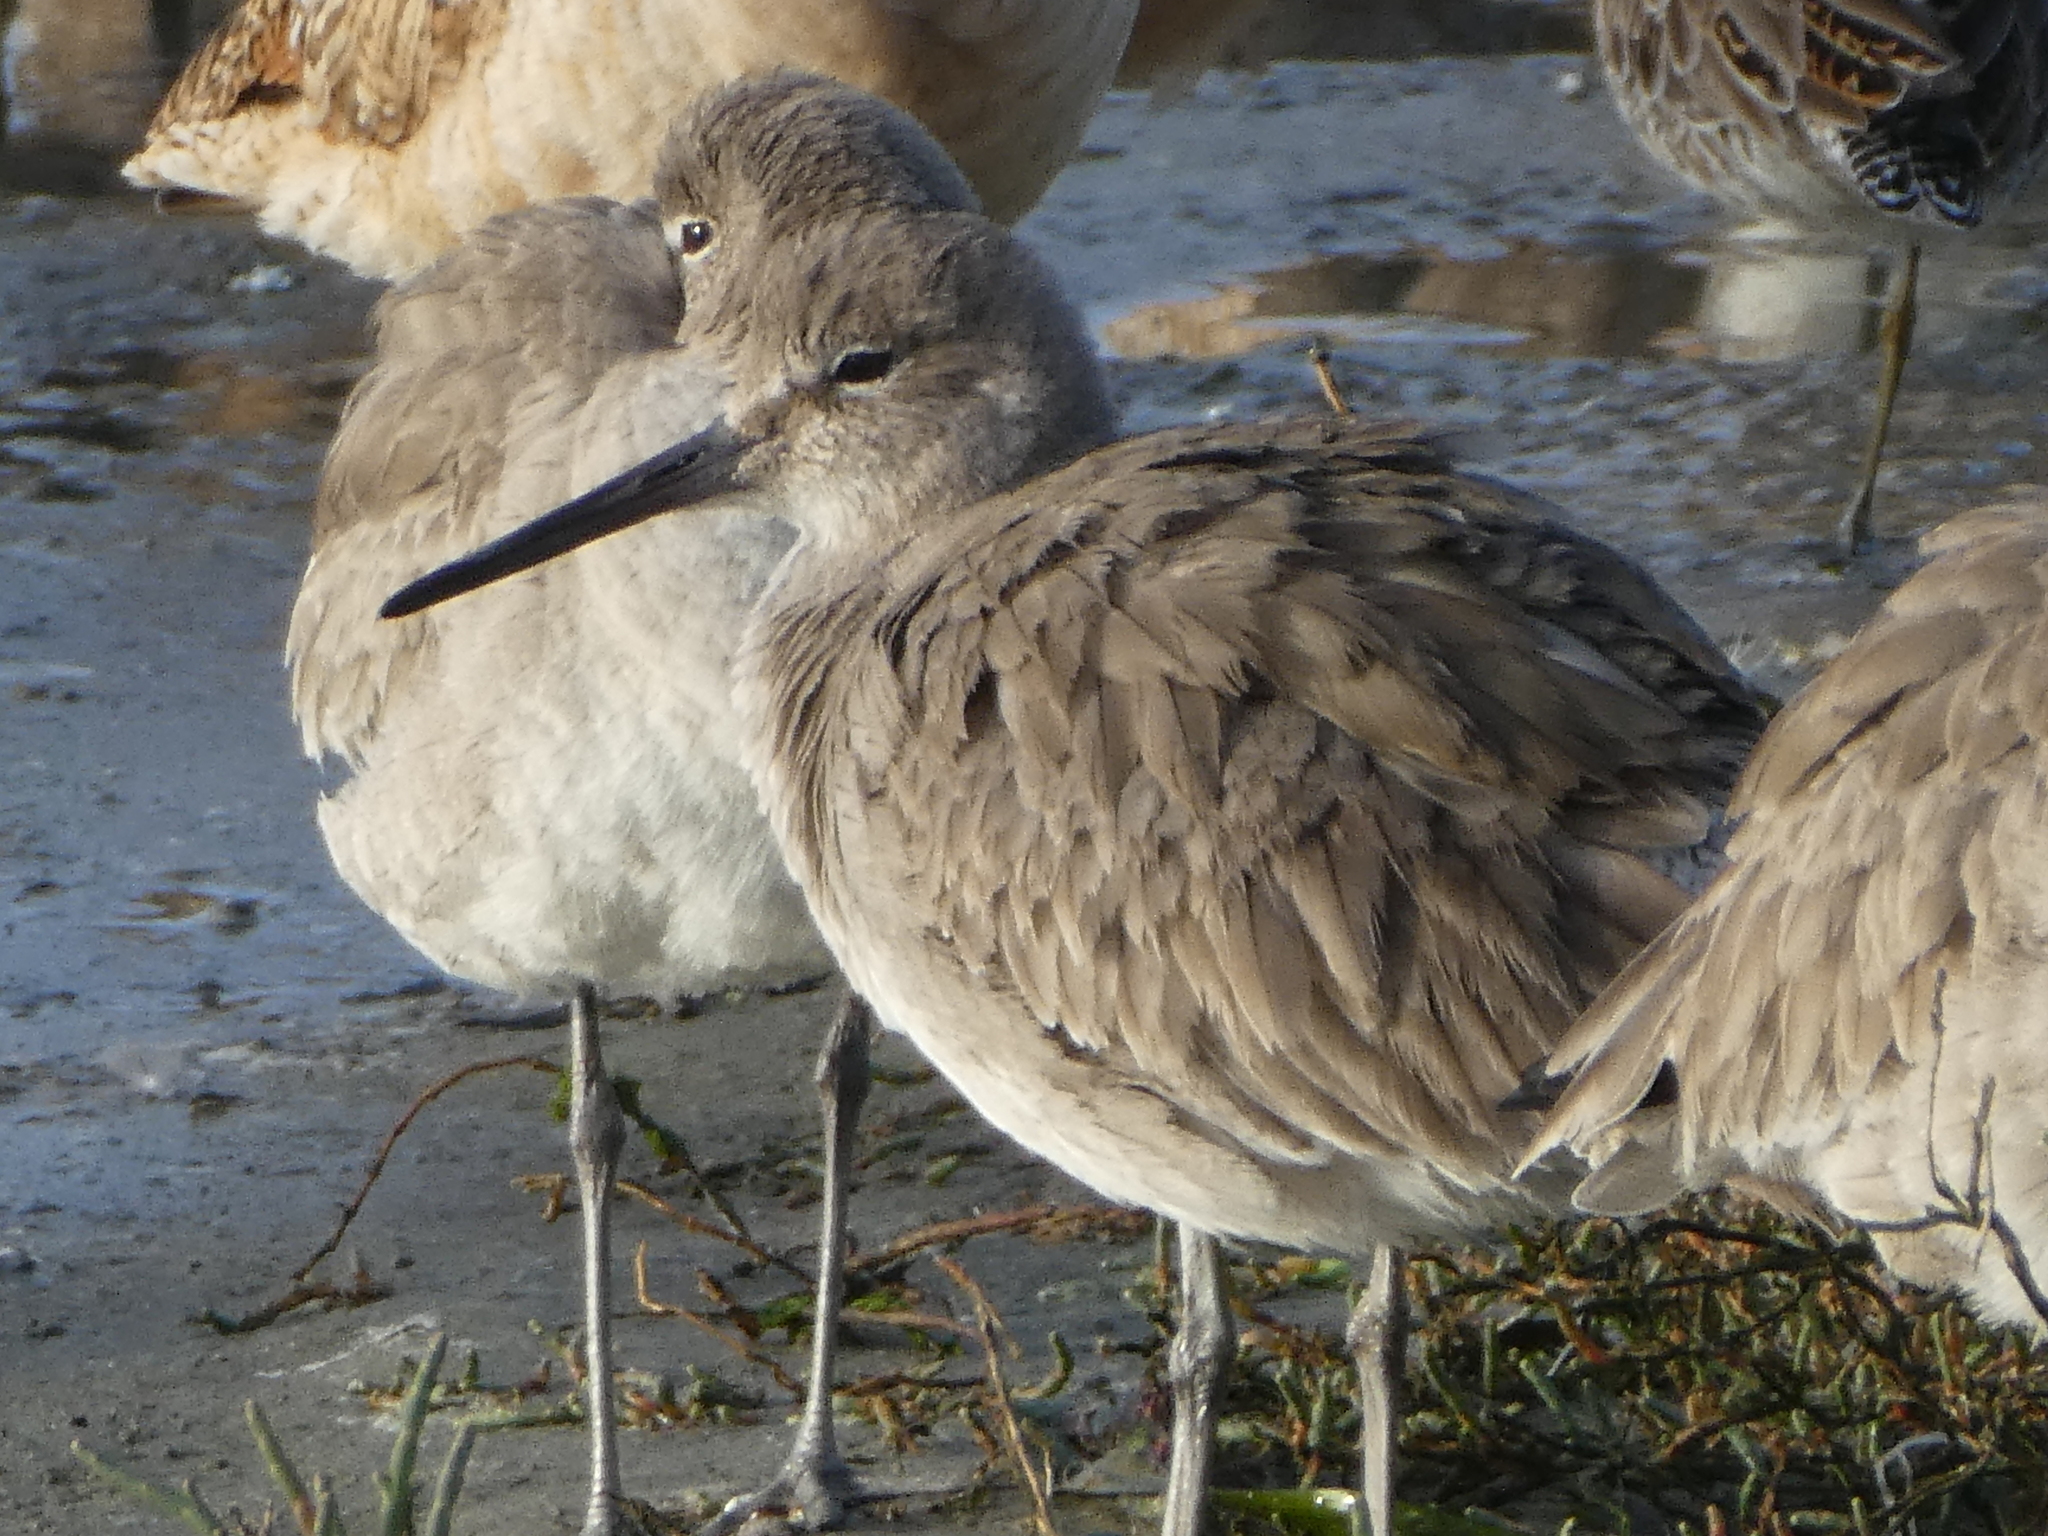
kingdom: Animalia
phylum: Chordata
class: Aves
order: Charadriiformes
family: Scolopacidae
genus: Tringa
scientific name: Tringa semipalmata
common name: Willet
